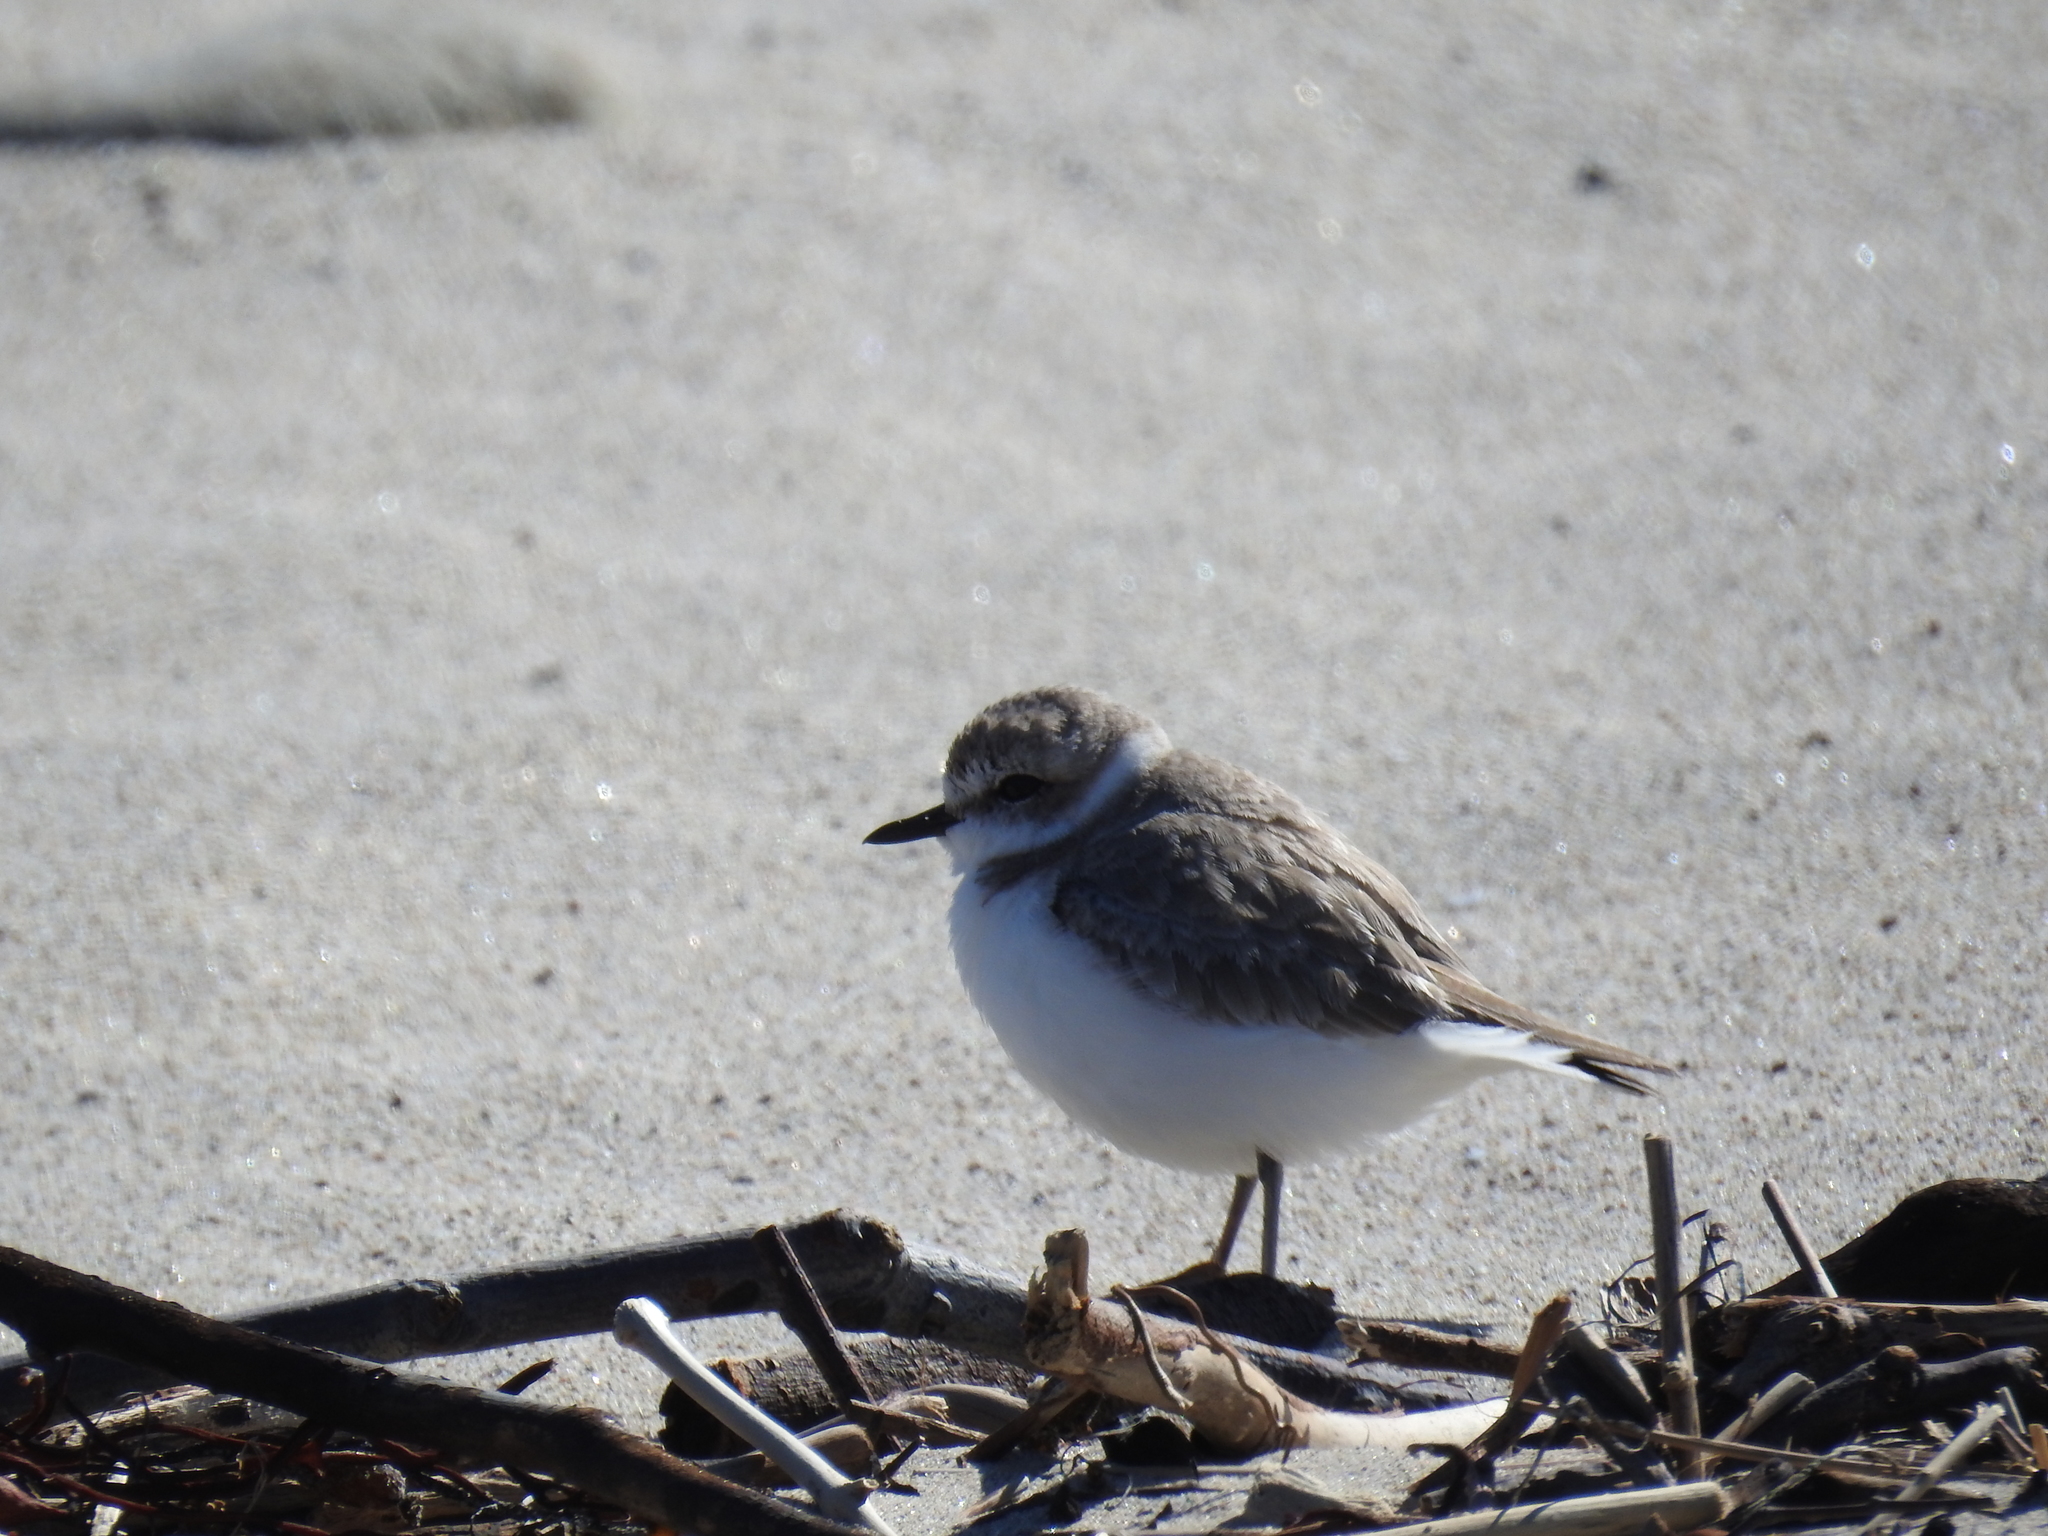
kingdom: Animalia
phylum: Chordata
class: Aves
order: Charadriiformes
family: Charadriidae
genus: Anarhynchus
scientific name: Anarhynchus
